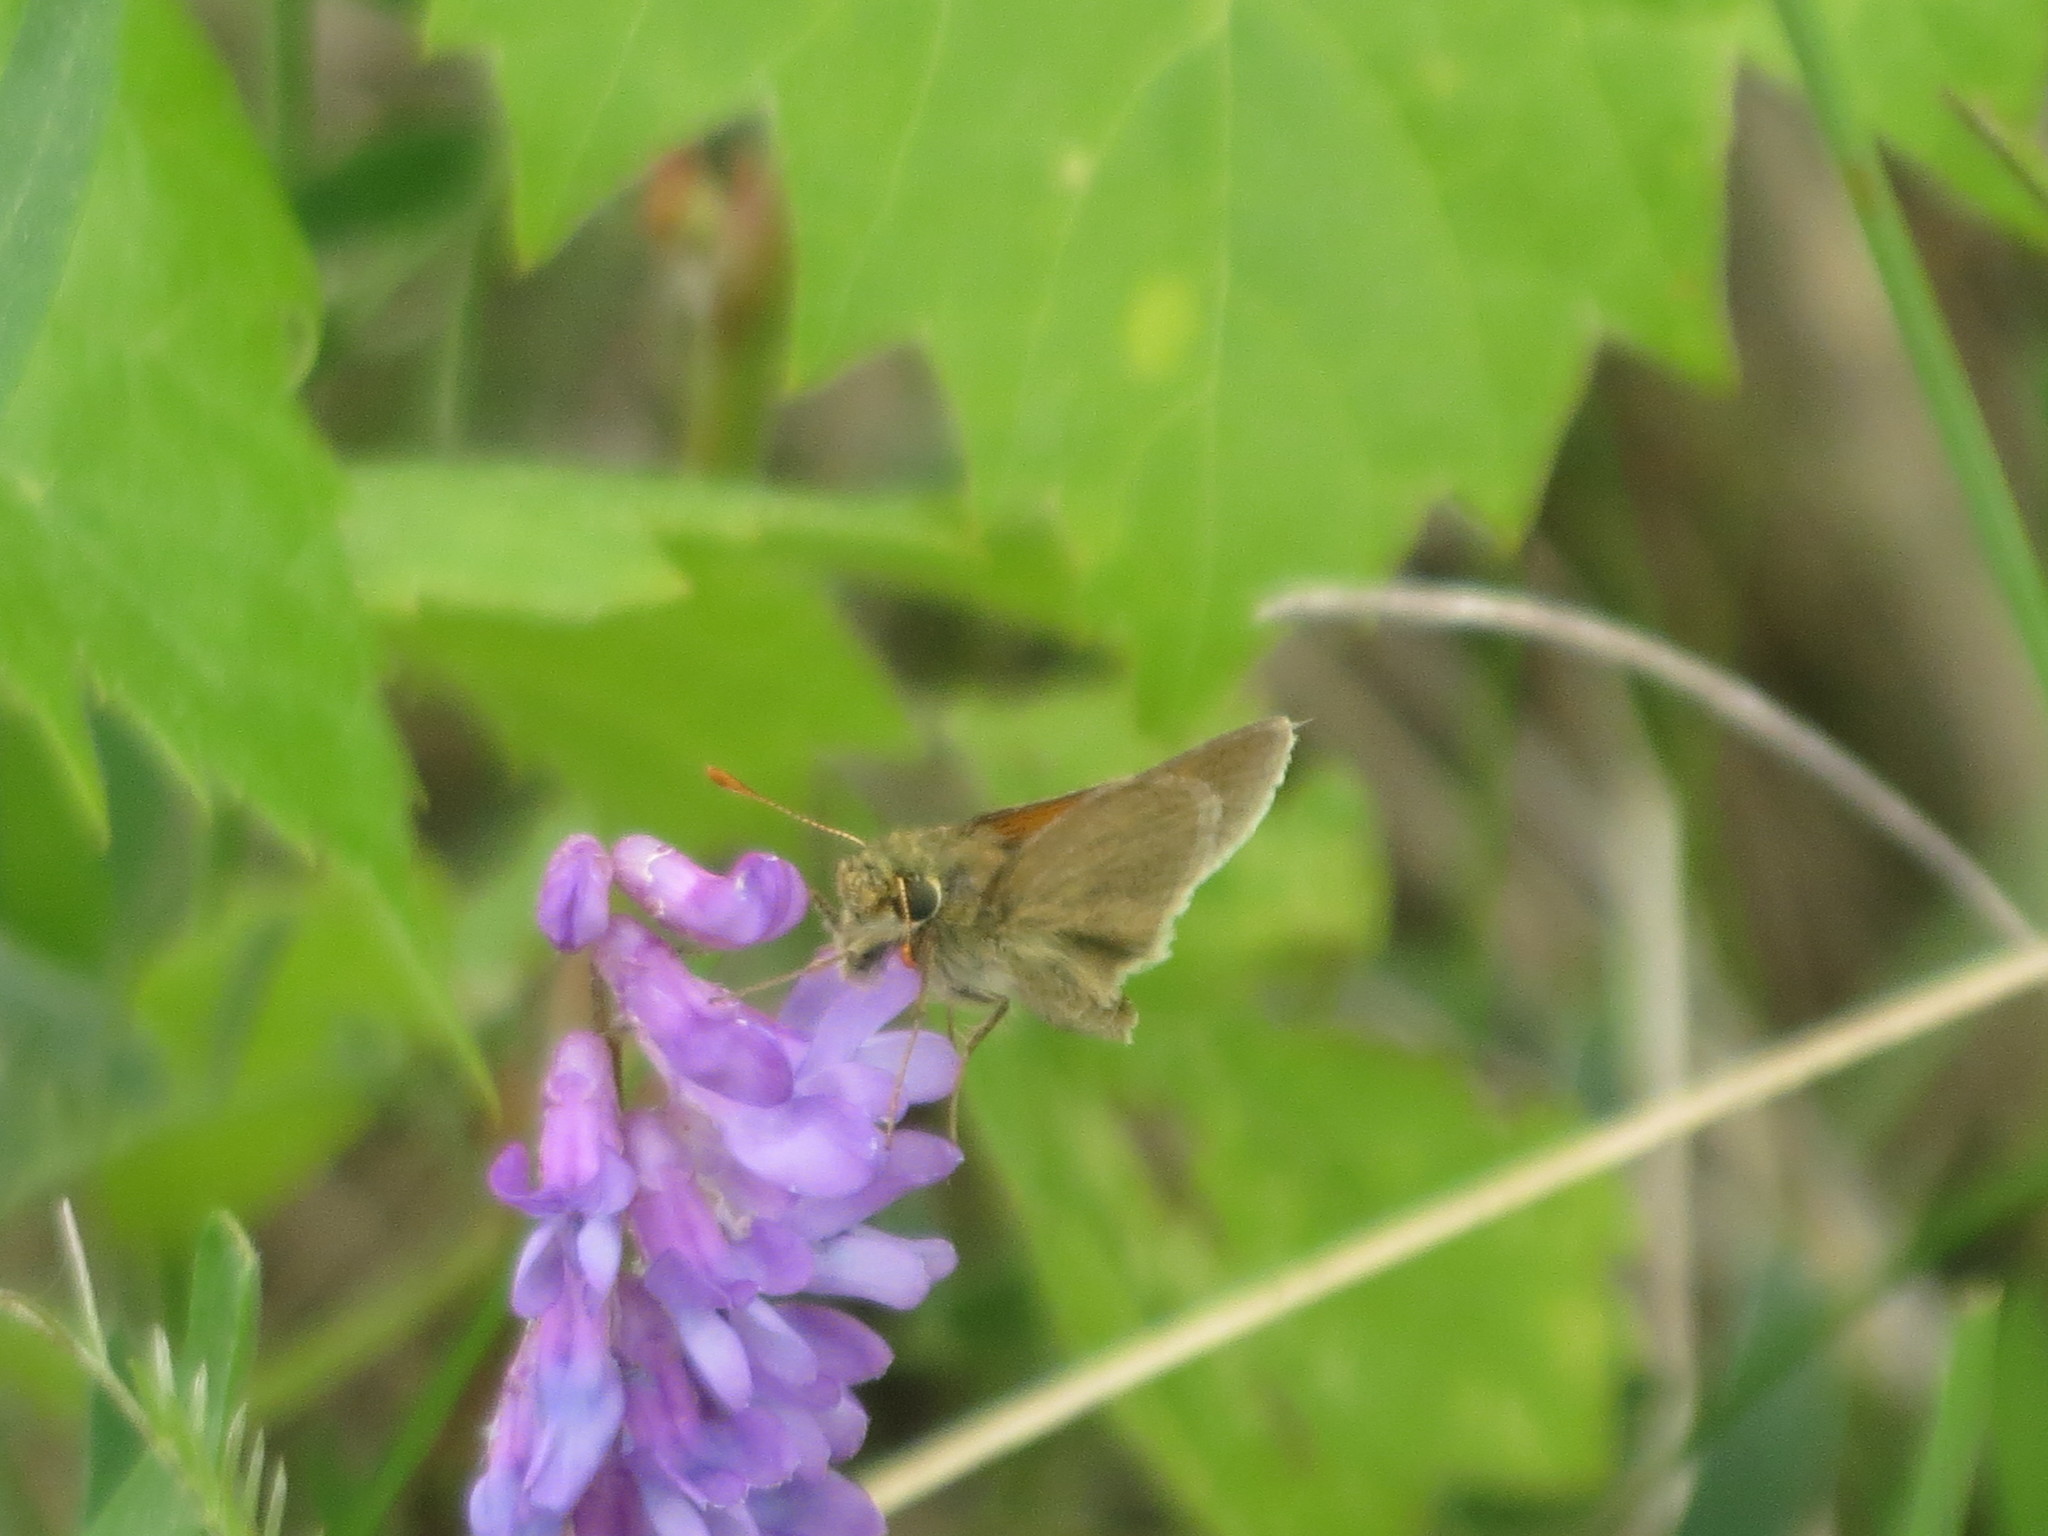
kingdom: Animalia
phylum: Arthropoda
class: Insecta
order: Lepidoptera
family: Hesperiidae
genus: Polites
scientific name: Polites themistocles
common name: Tawny-edged skipper
